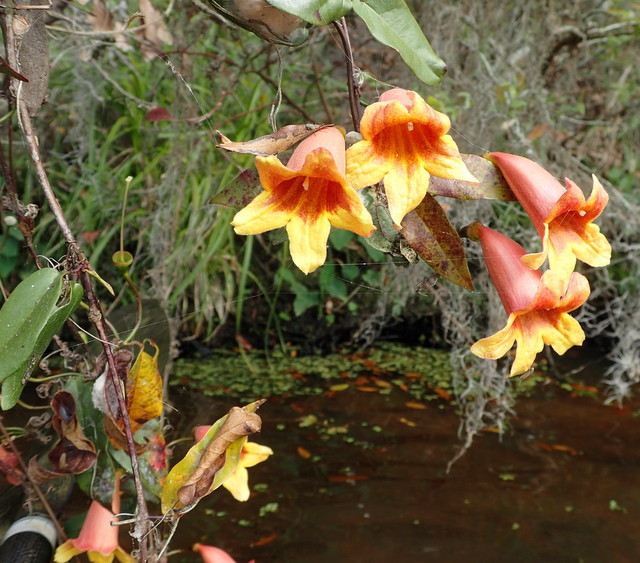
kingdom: Plantae
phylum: Tracheophyta
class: Magnoliopsida
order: Lamiales
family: Bignoniaceae
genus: Bignonia
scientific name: Bignonia capreolata
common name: Crossvine
